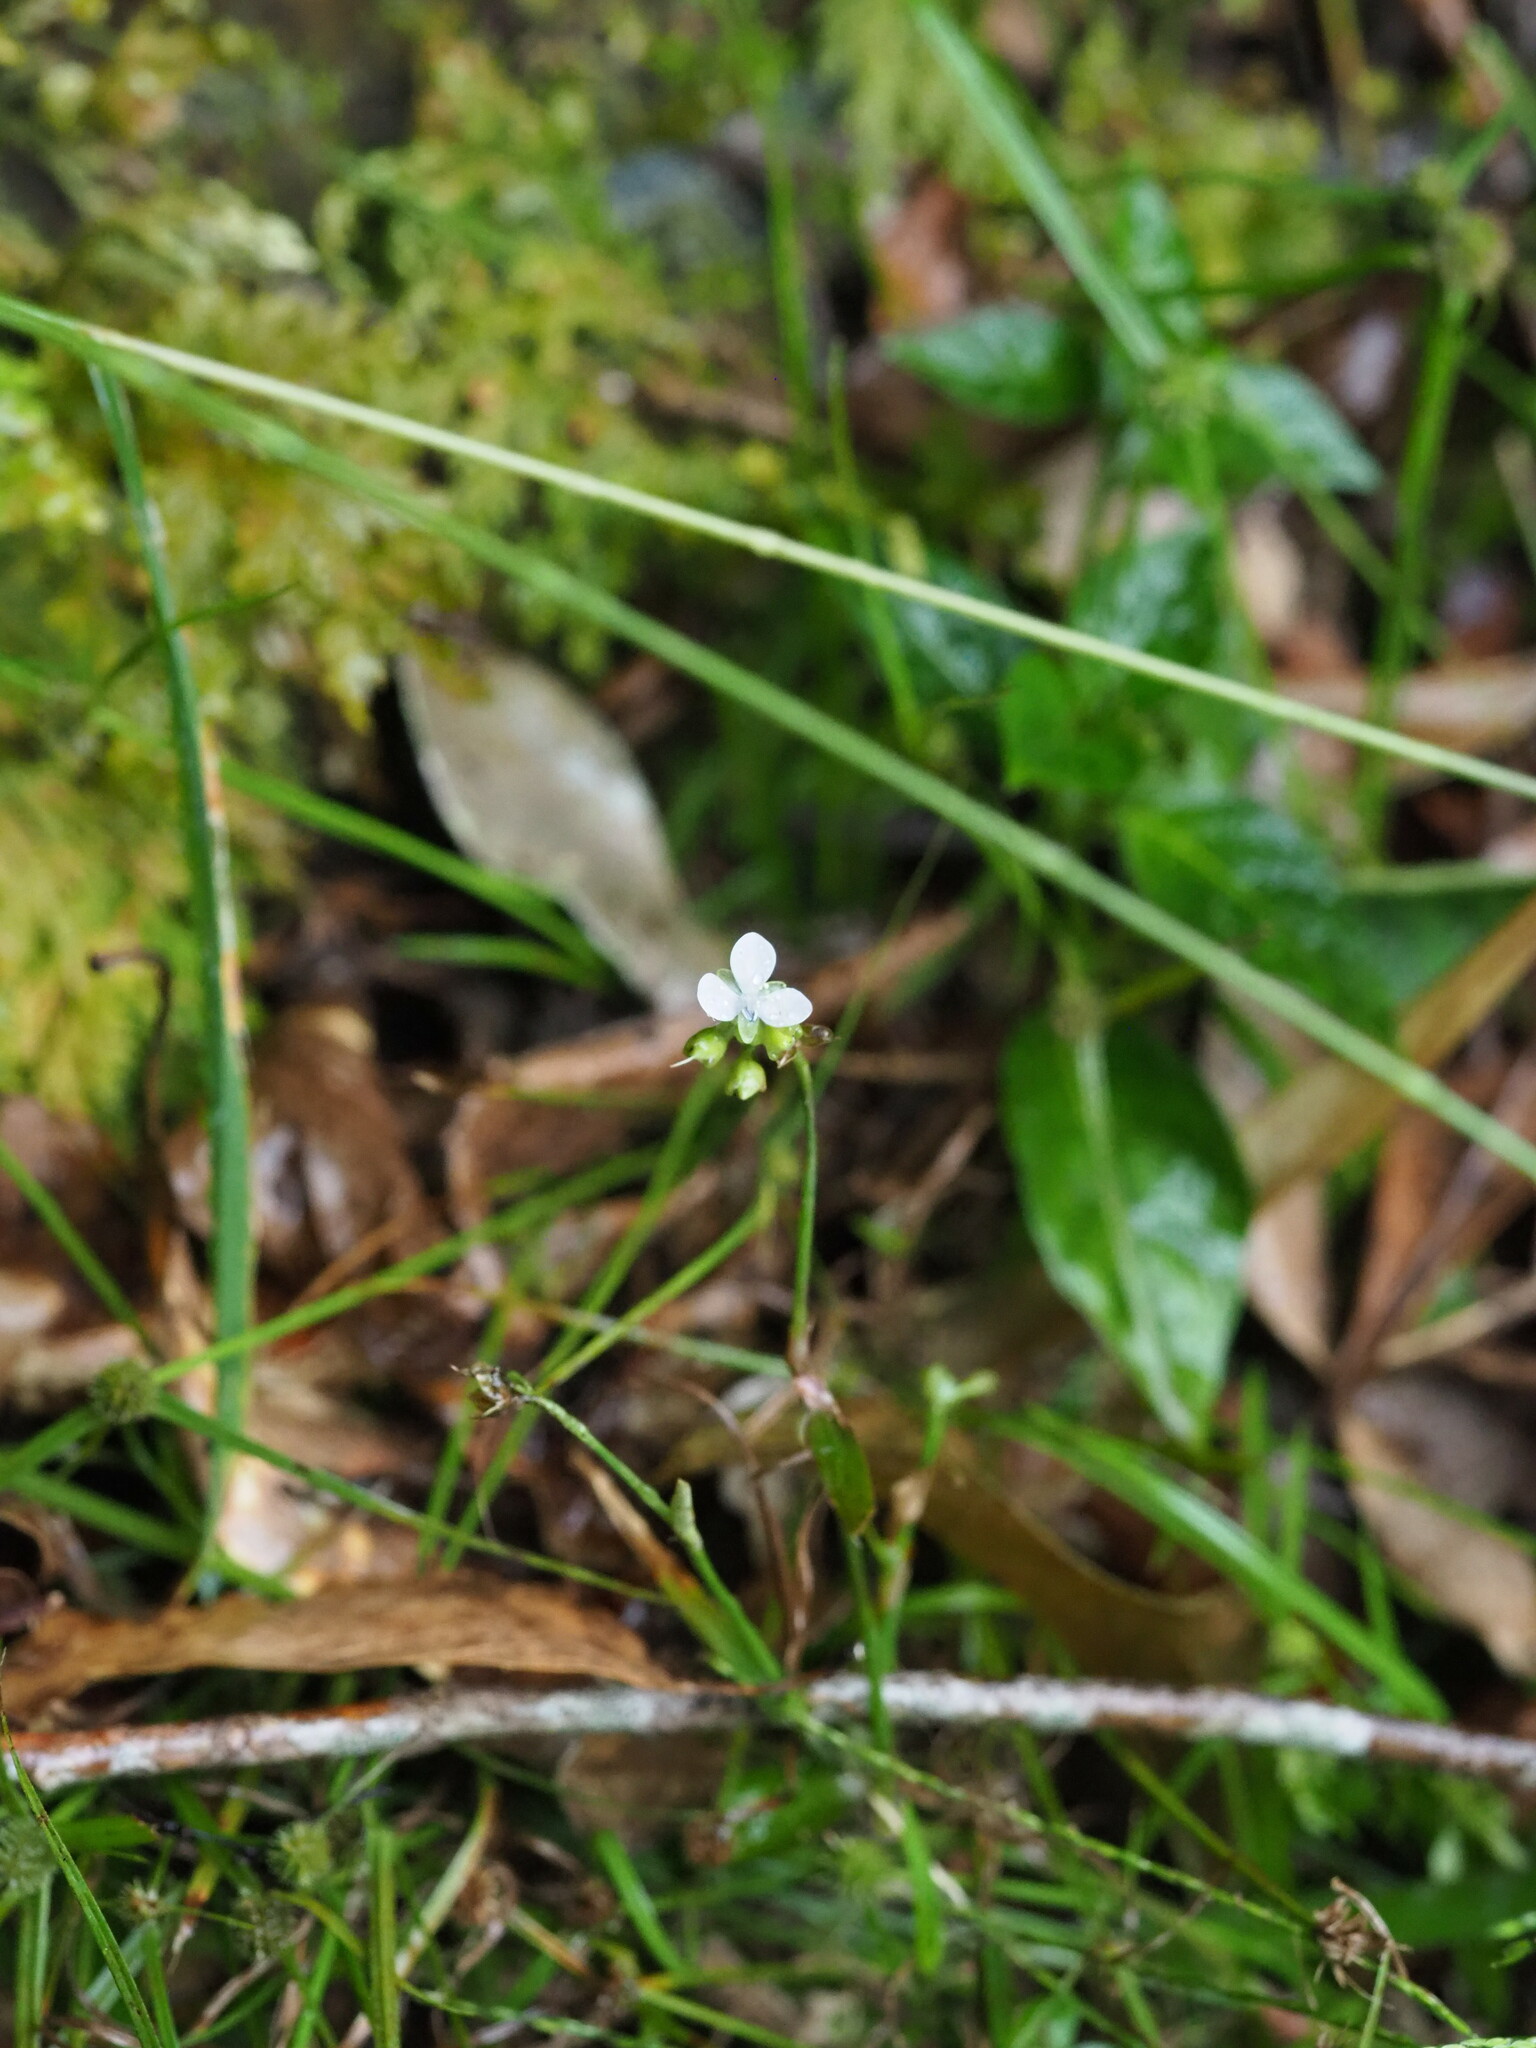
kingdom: Plantae
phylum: Tracheophyta
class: Liliopsida
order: Commelinales
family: Commelinaceae
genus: Murdannia
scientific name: Murdannia loriformis
